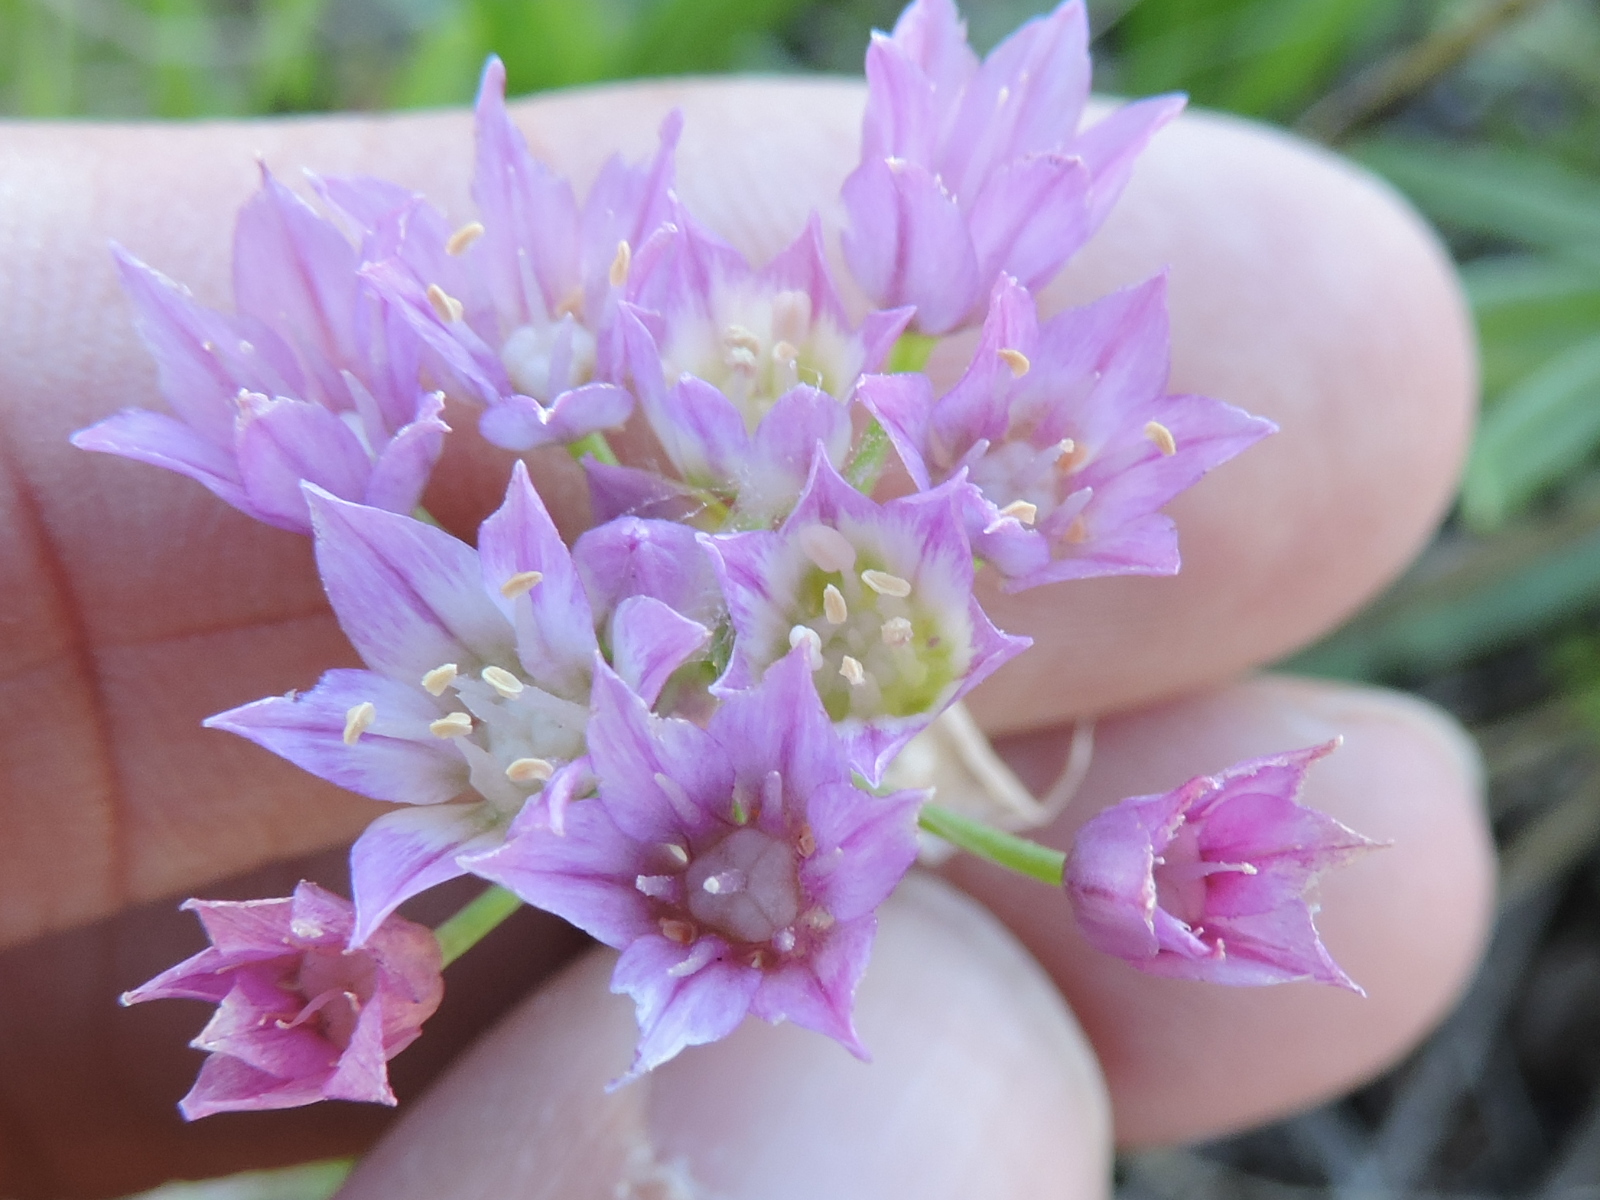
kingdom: Plantae
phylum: Tracheophyta
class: Liliopsida
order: Asparagales
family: Amaryllidaceae
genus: Allium
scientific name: Allium drummondii
